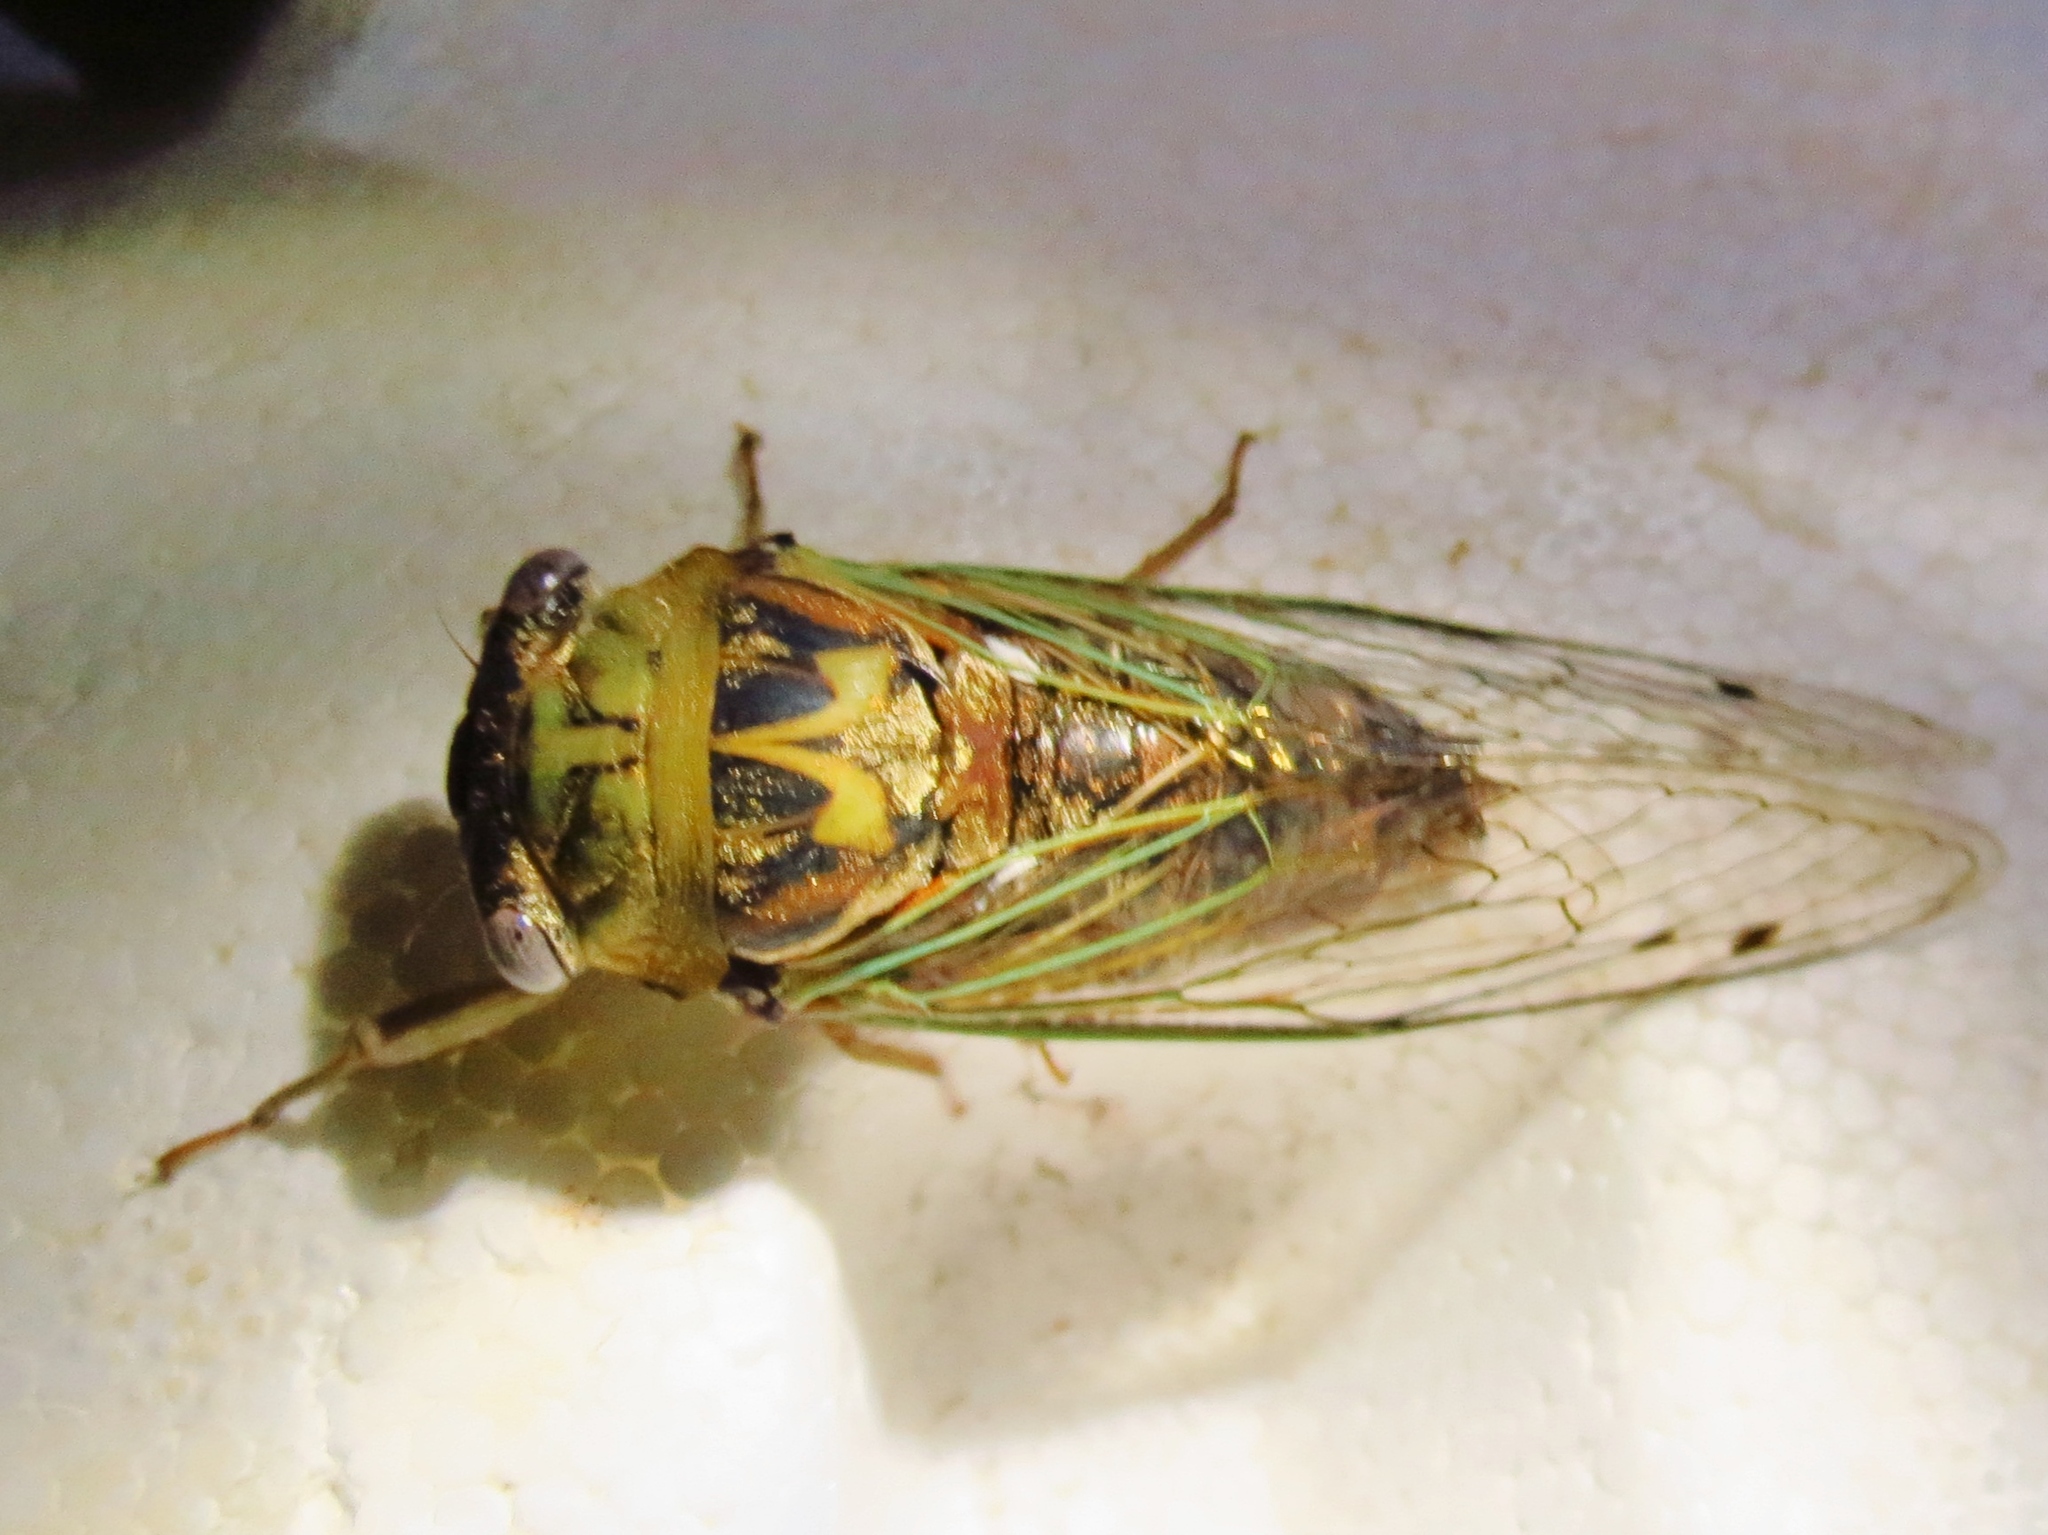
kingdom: Animalia
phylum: Arthropoda
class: Insecta
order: Hemiptera
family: Cicadidae
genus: Megatibicen
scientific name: Megatibicen resh
